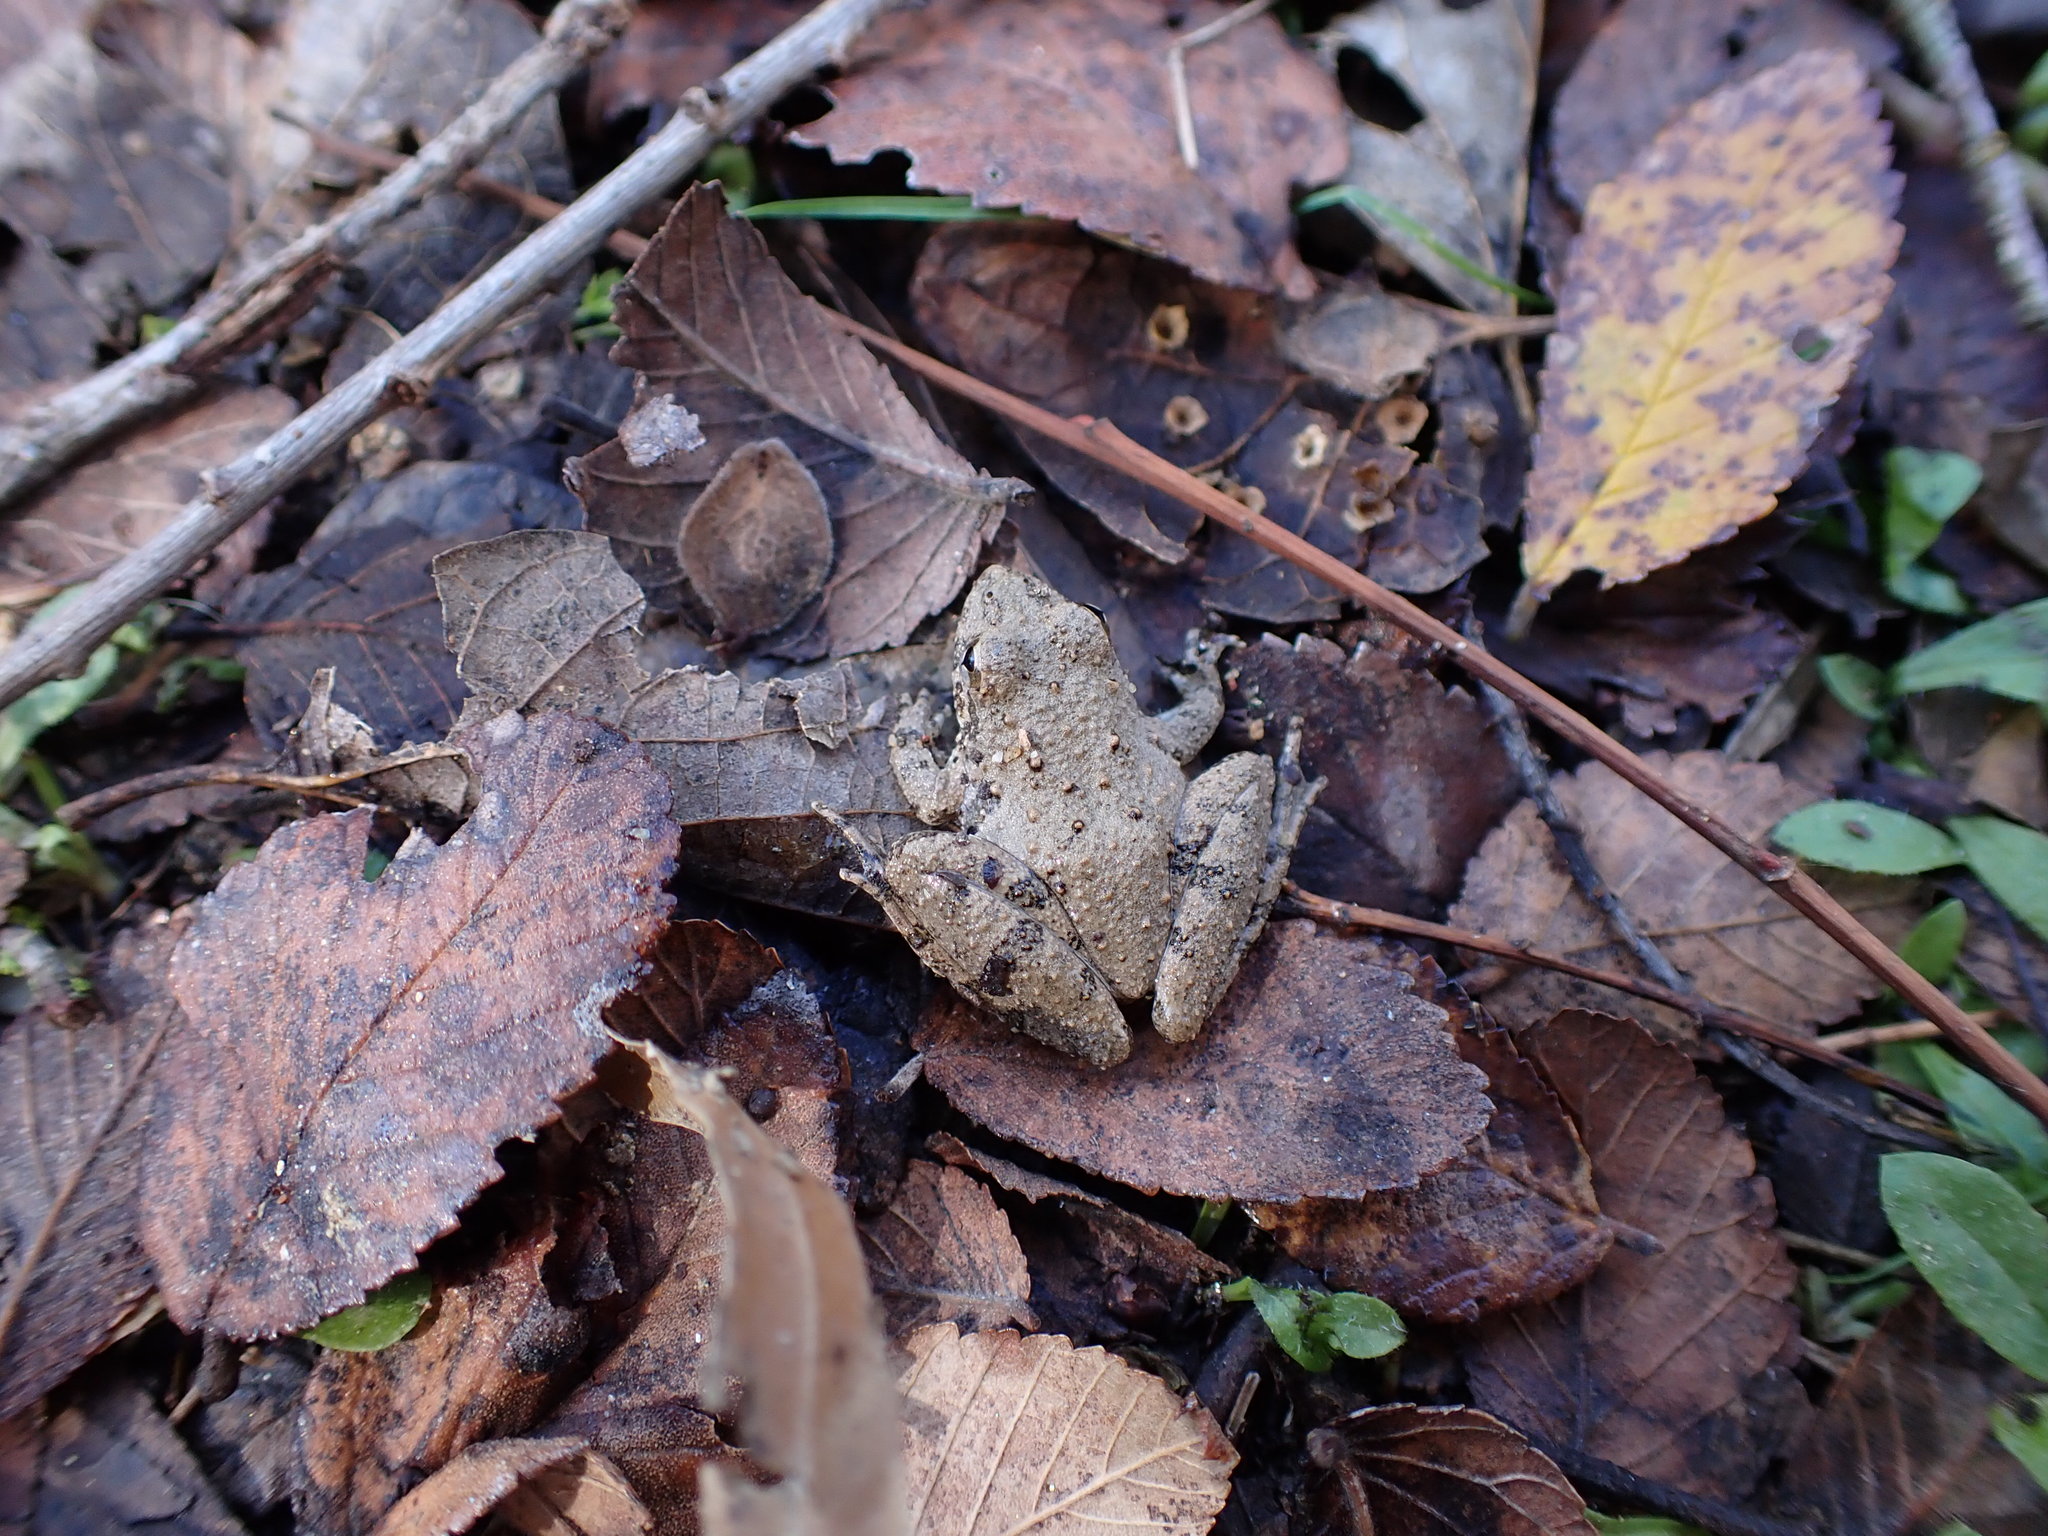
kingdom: Animalia
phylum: Chordata
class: Amphibia
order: Anura
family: Hylidae
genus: Acris
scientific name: Acris blanchardi
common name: Blanchard's cricket frog
